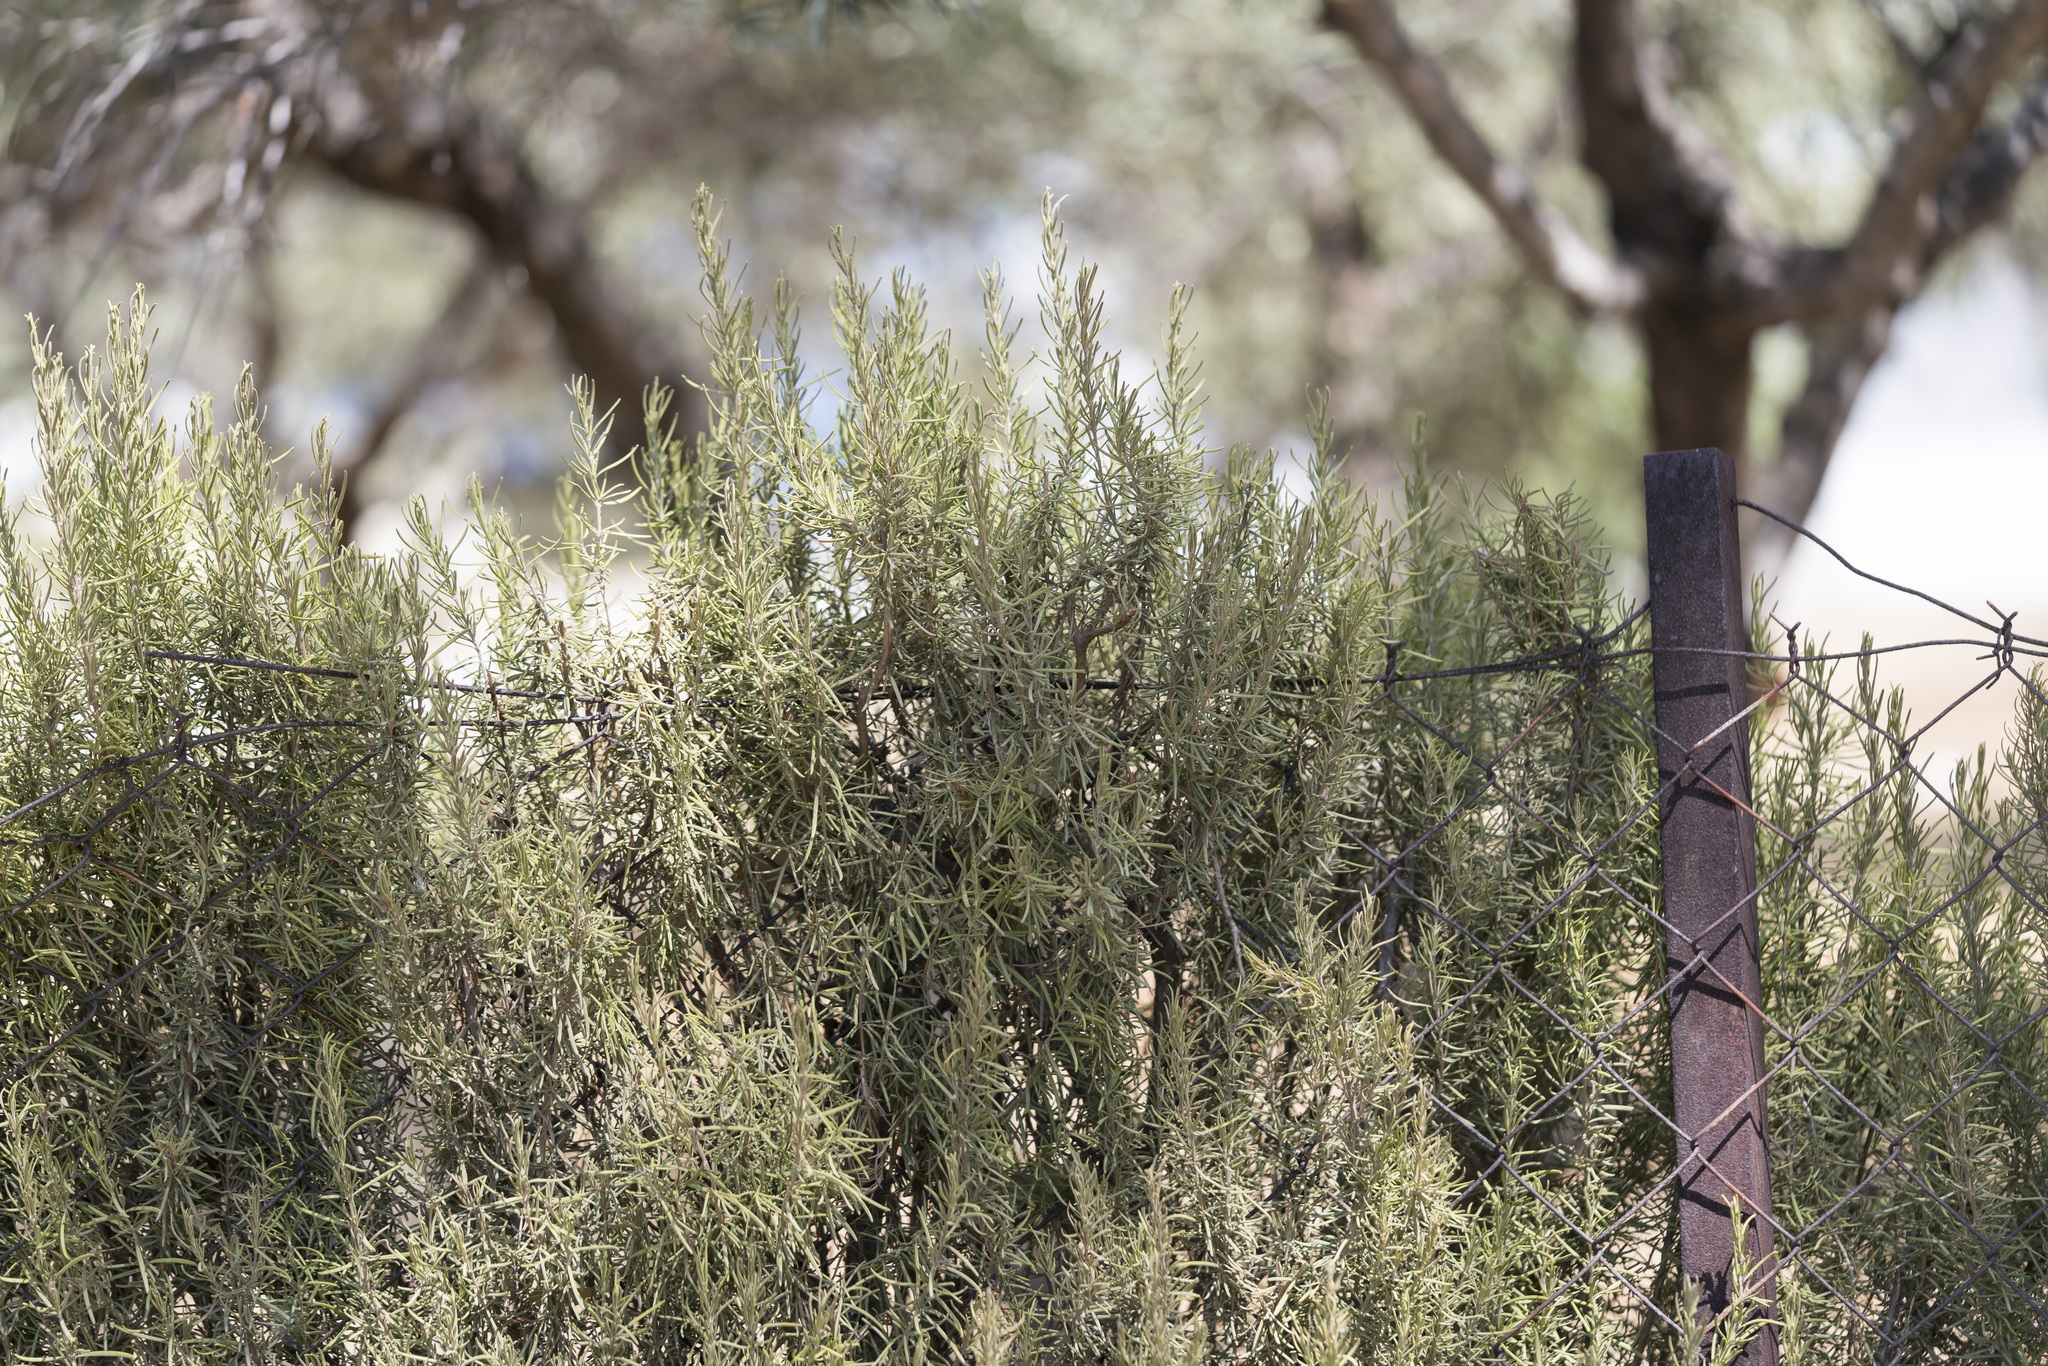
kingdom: Plantae
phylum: Tracheophyta
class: Magnoliopsida
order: Lamiales
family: Lamiaceae
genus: Salvia
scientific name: Salvia rosmarinus
